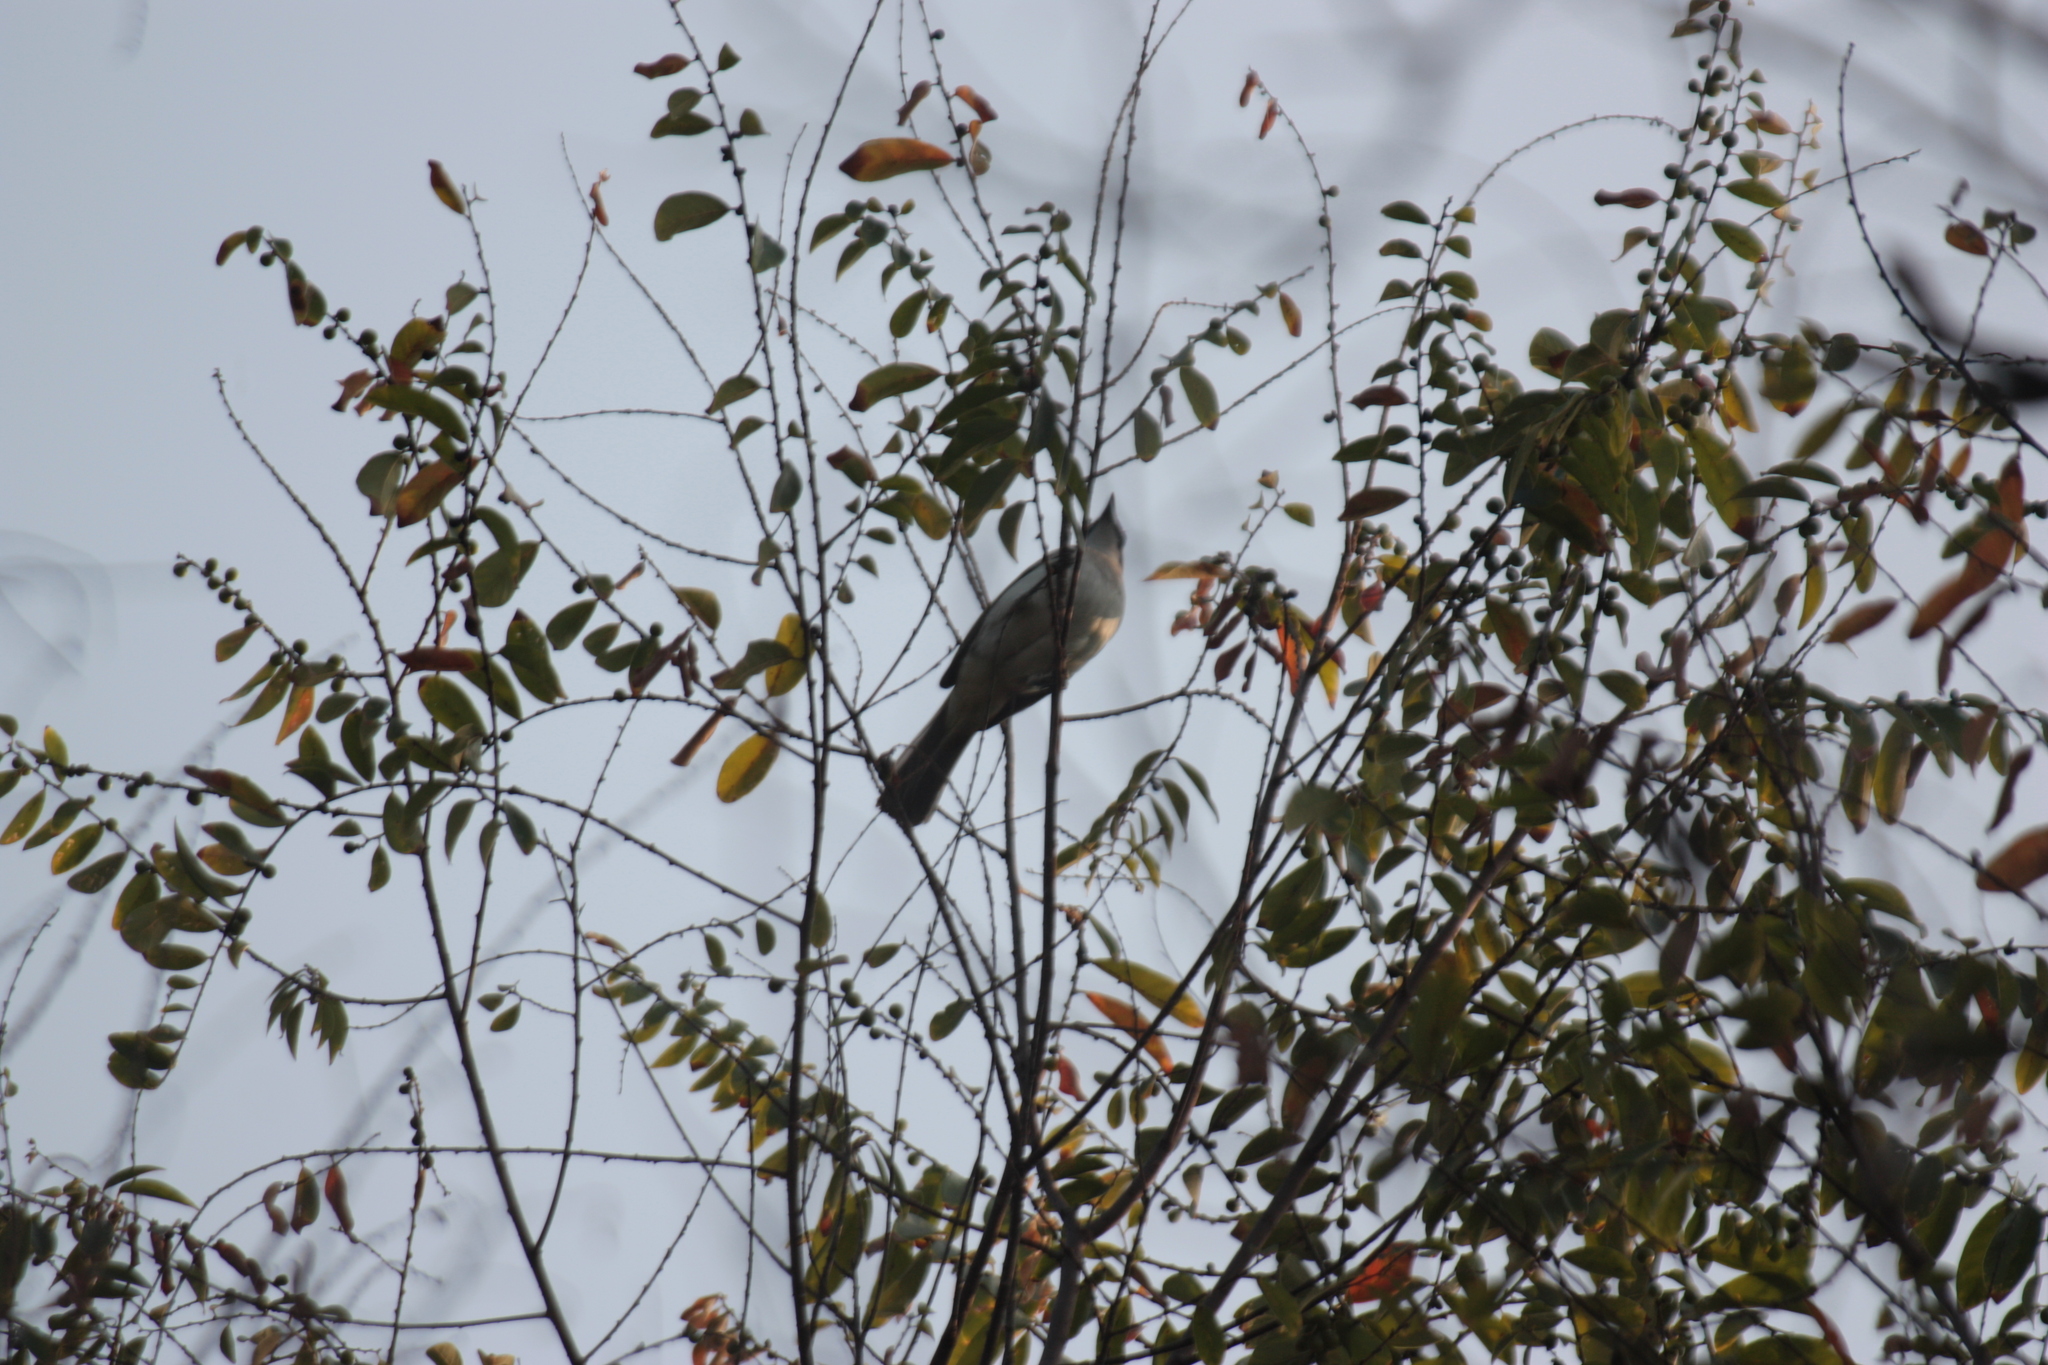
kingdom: Animalia
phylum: Chordata
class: Aves
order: Passeriformes
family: Pycnonotidae
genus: Pycnonotus
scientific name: Pycnonotus sinensis
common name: Light-vented bulbul
